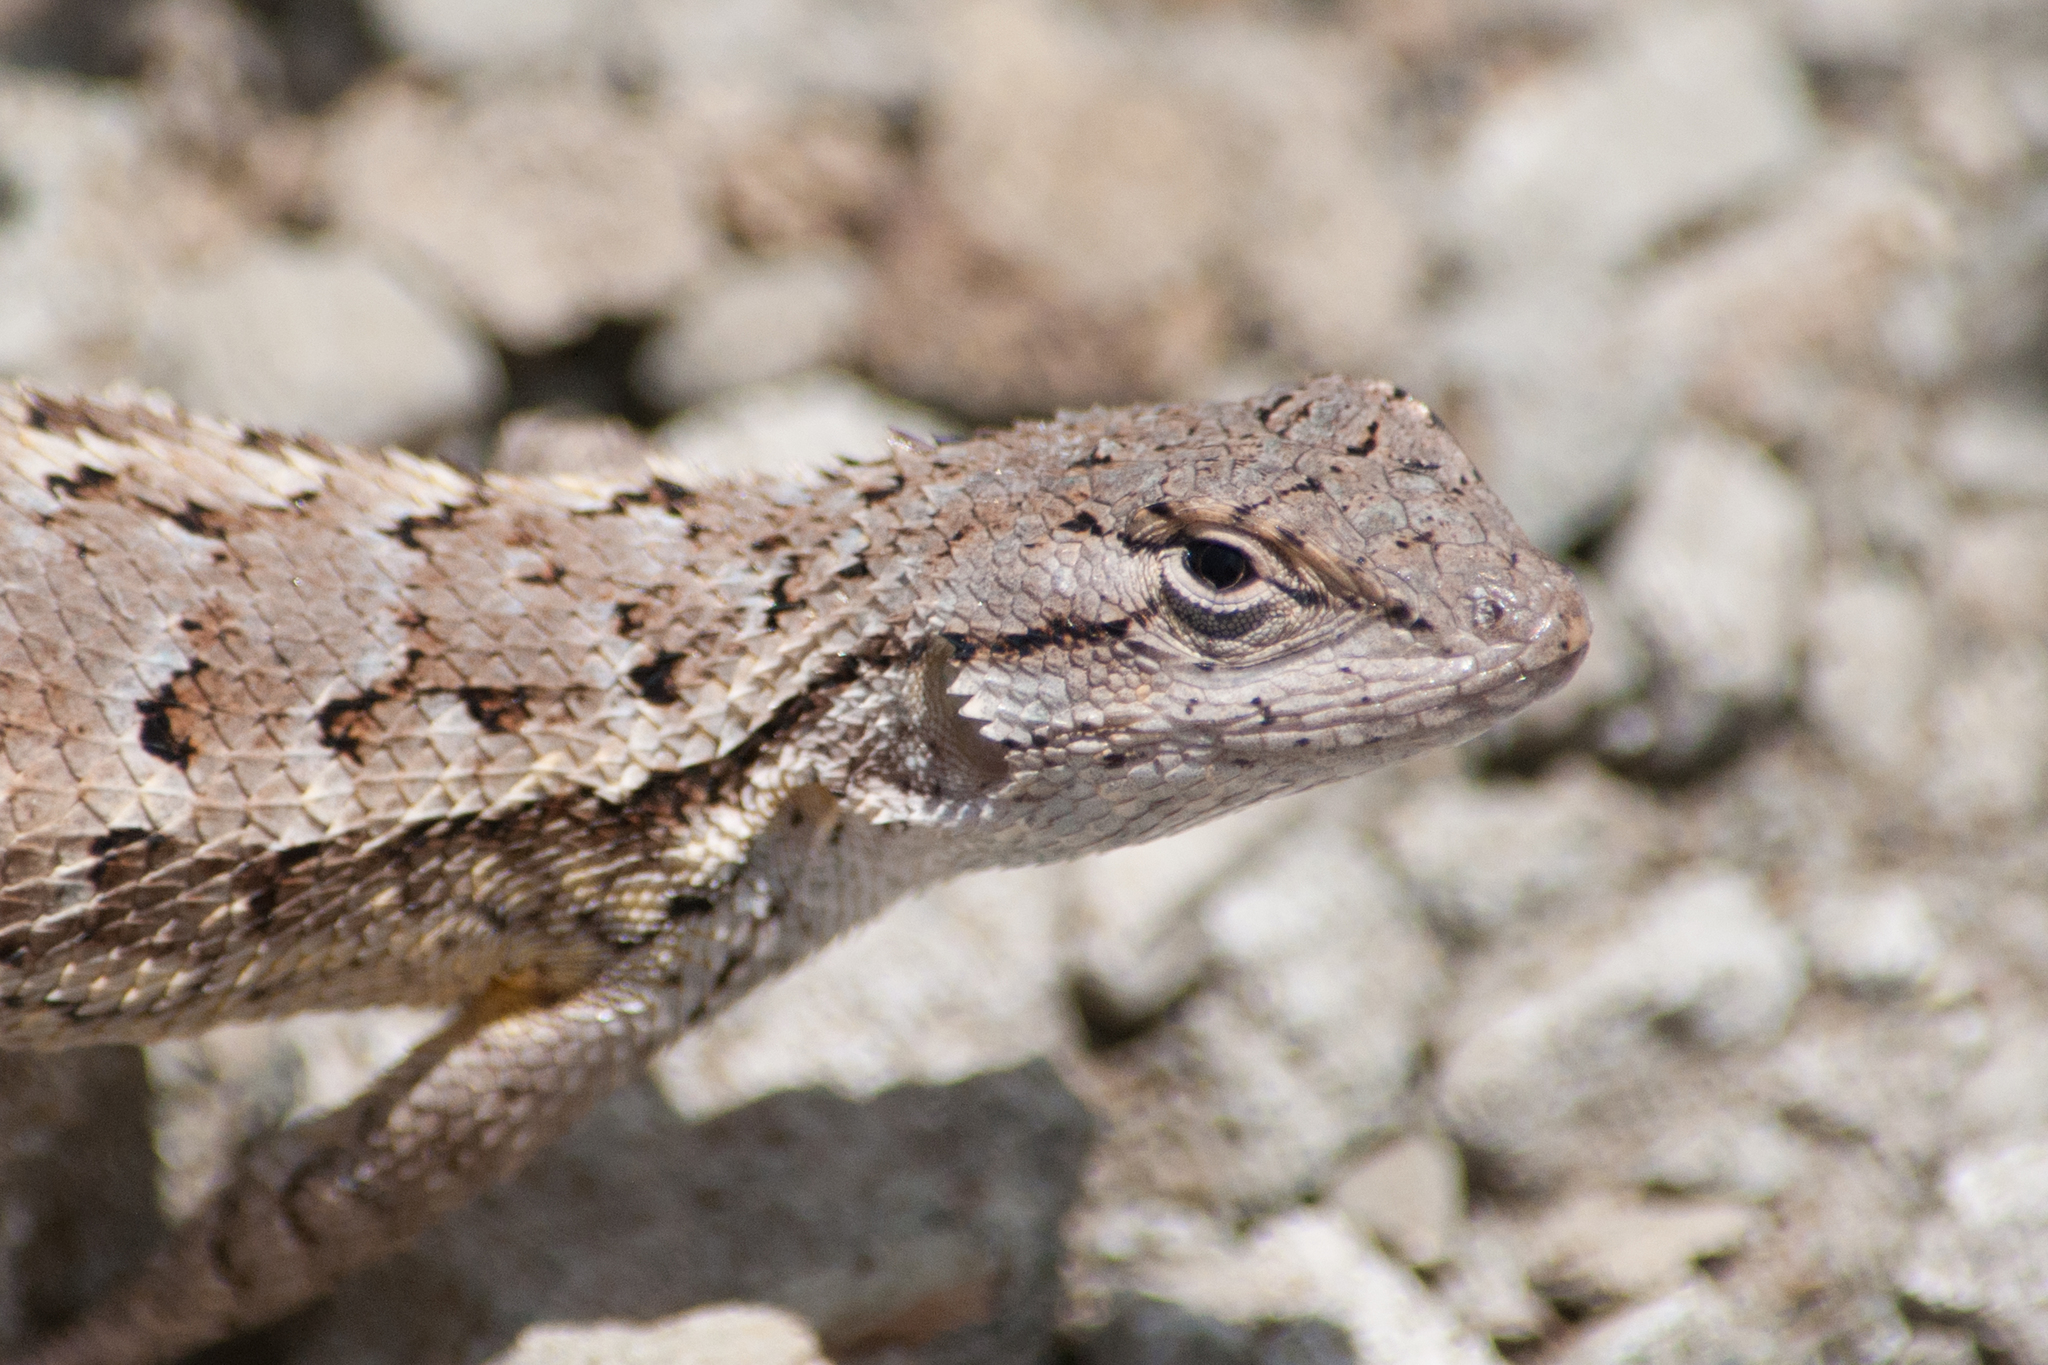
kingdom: Animalia
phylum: Chordata
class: Squamata
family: Phrynosomatidae
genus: Sceloporus
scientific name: Sceloporus occidentalis
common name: Western fence lizard
